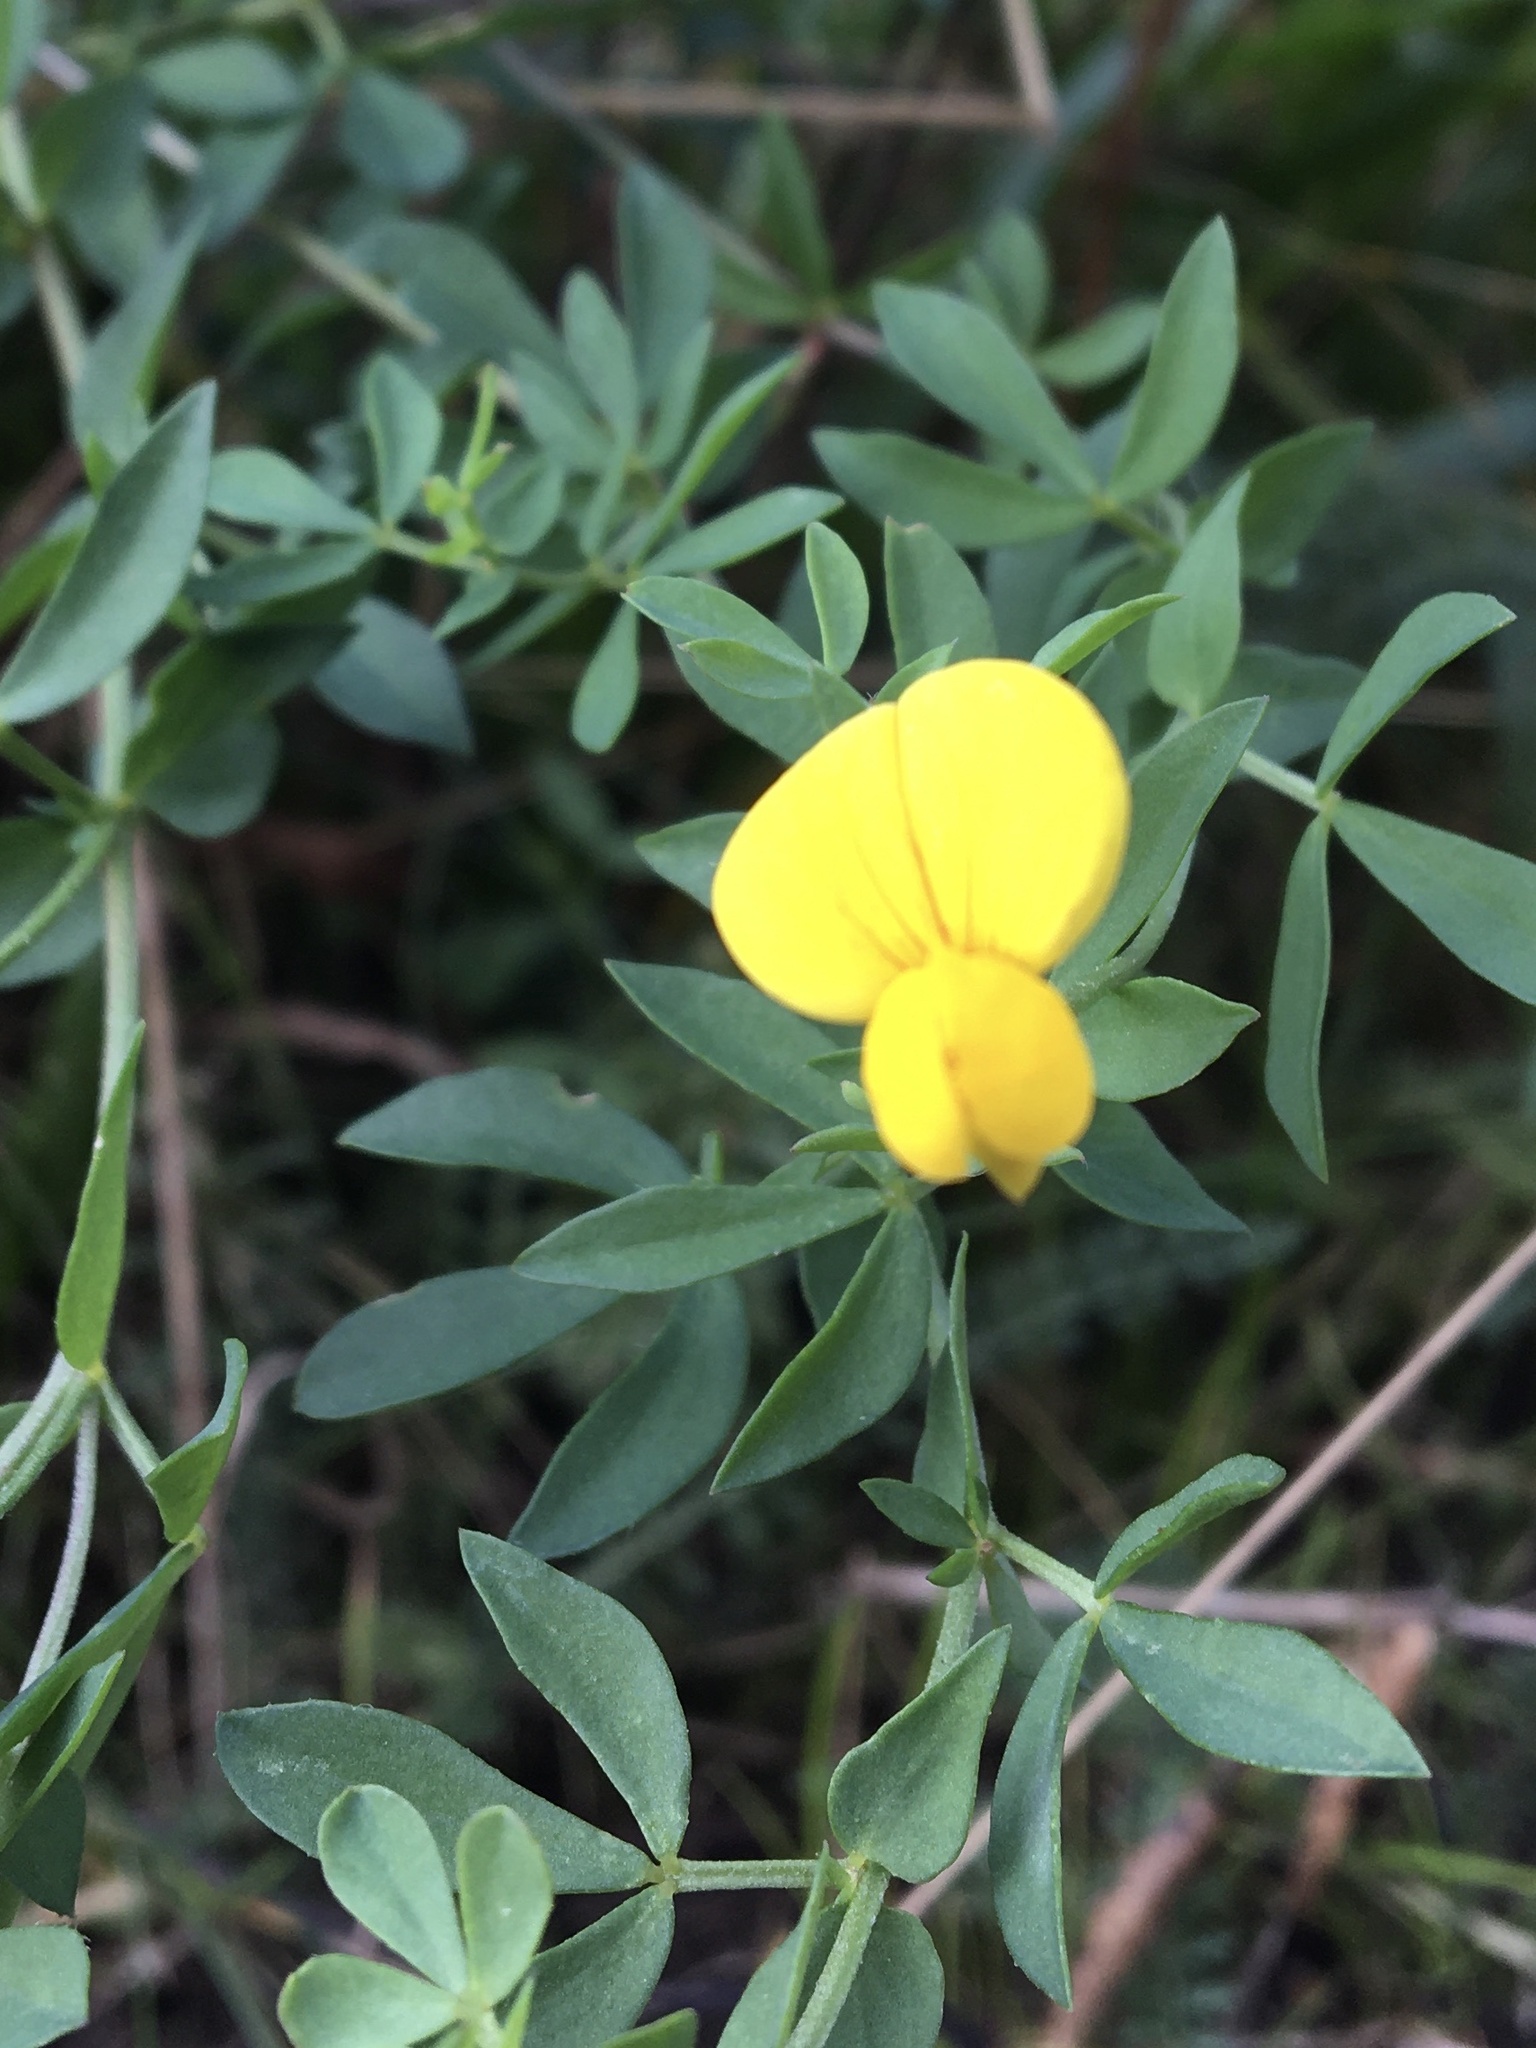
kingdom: Plantae
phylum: Tracheophyta
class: Magnoliopsida
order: Fabales
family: Fabaceae
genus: Lotus
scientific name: Lotus corniculatus
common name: Common bird's-foot-trefoil
